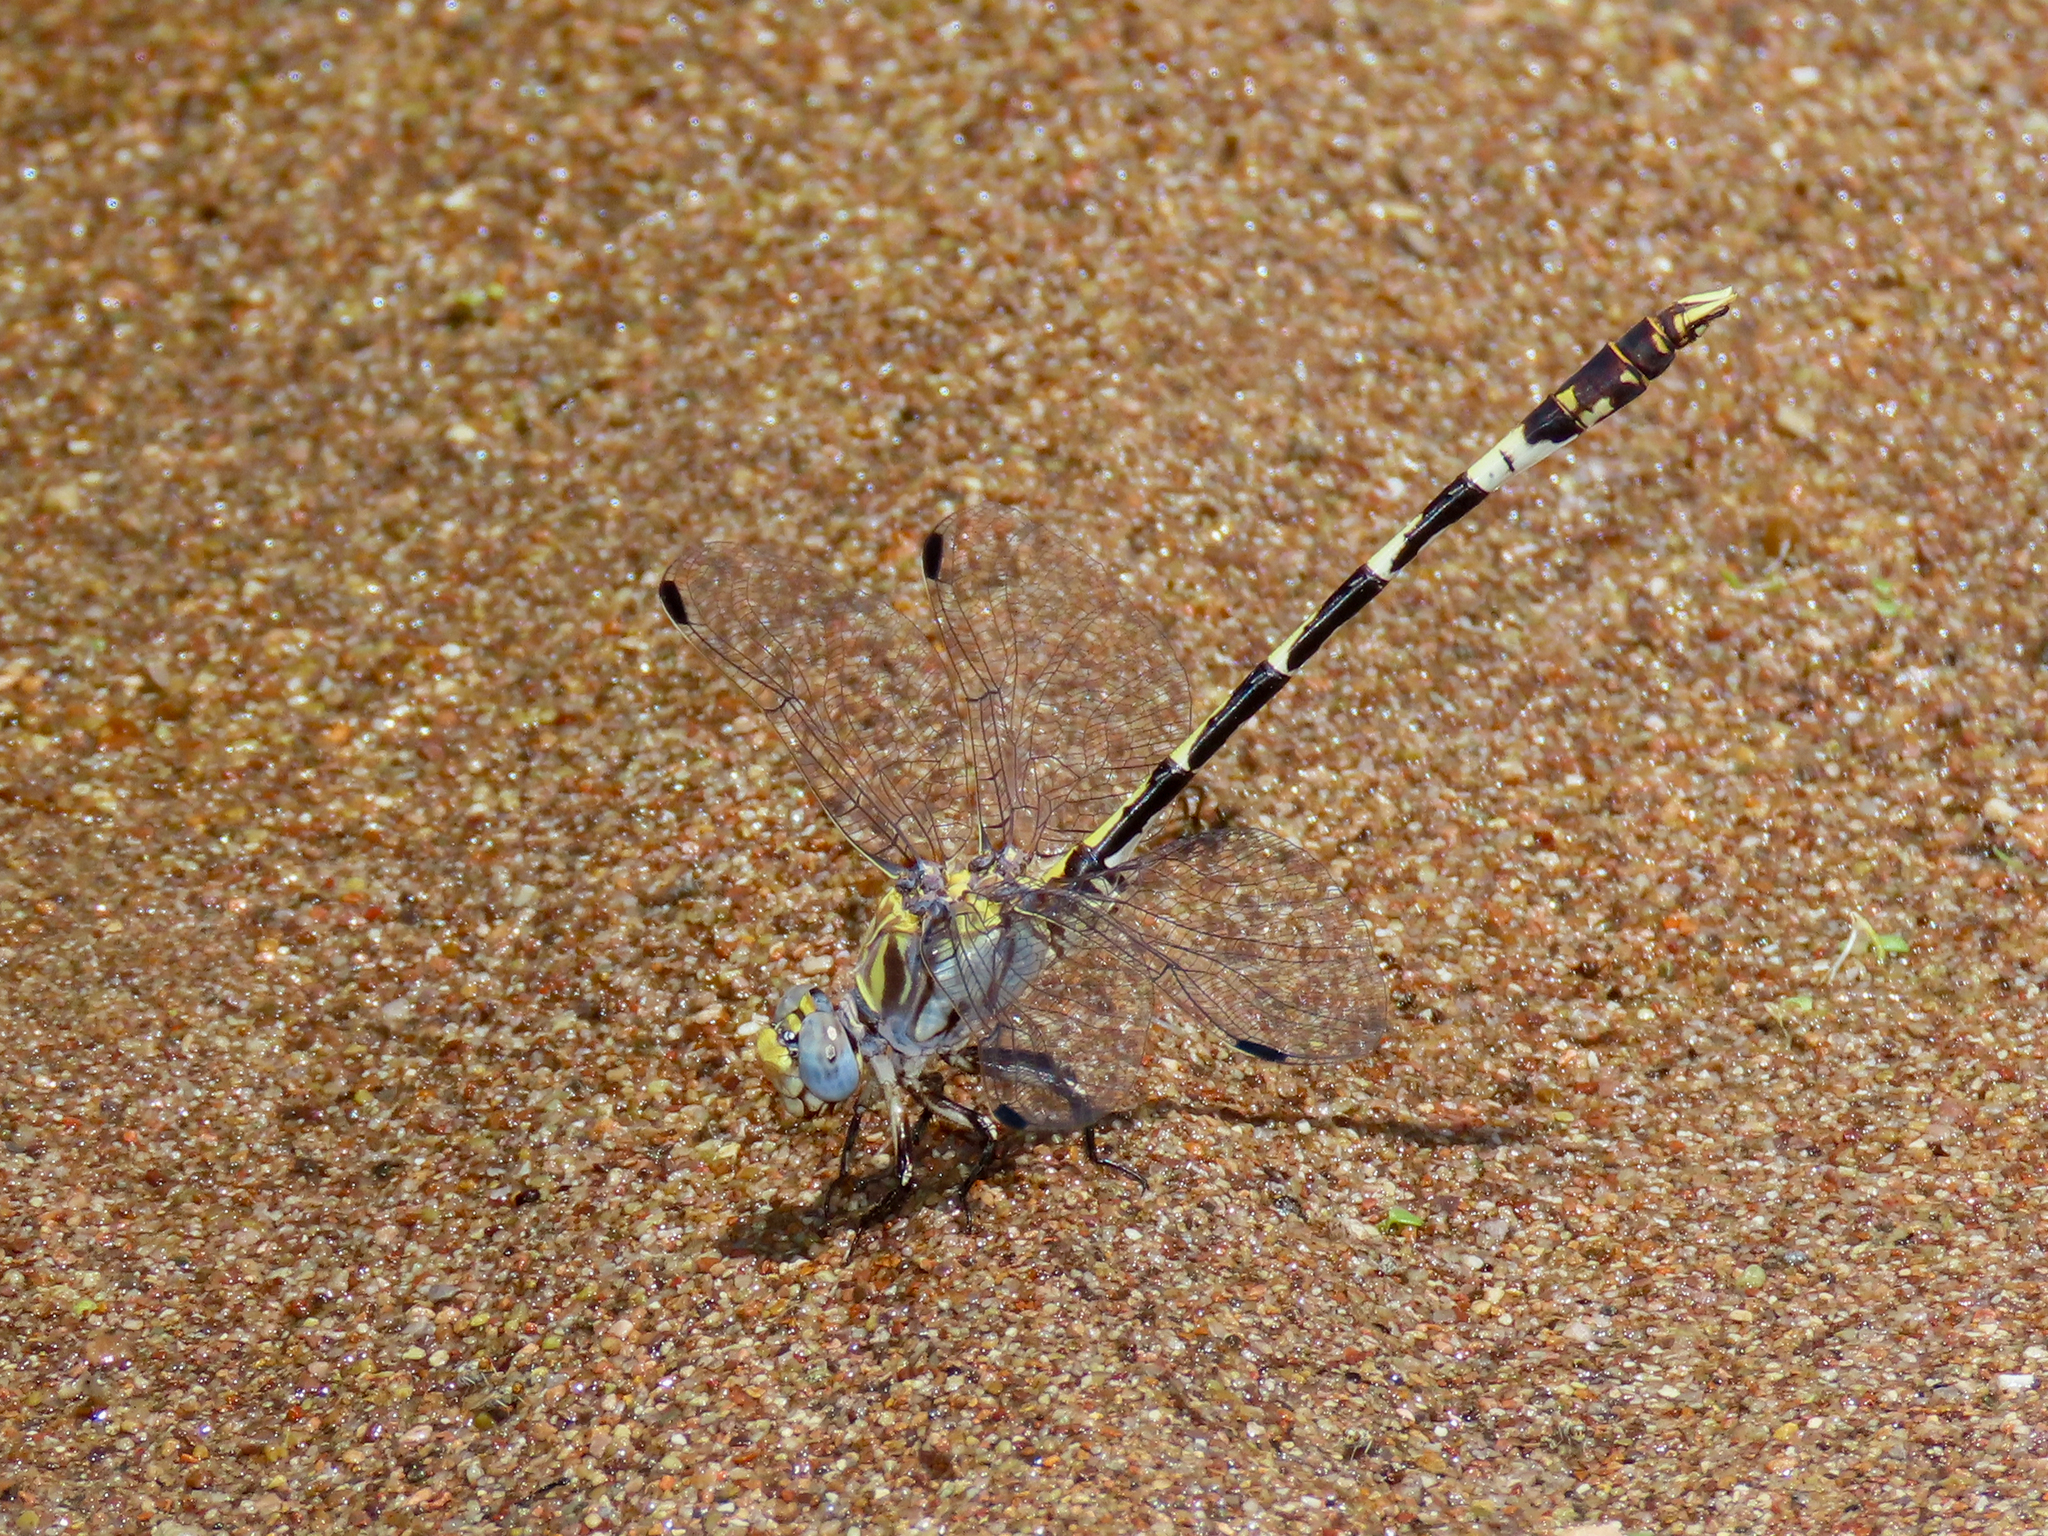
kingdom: Animalia
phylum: Arthropoda
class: Insecta
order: Odonata
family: Gomphidae
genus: Progomphus
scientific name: Progomphus borealis
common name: Gray sanddragon
